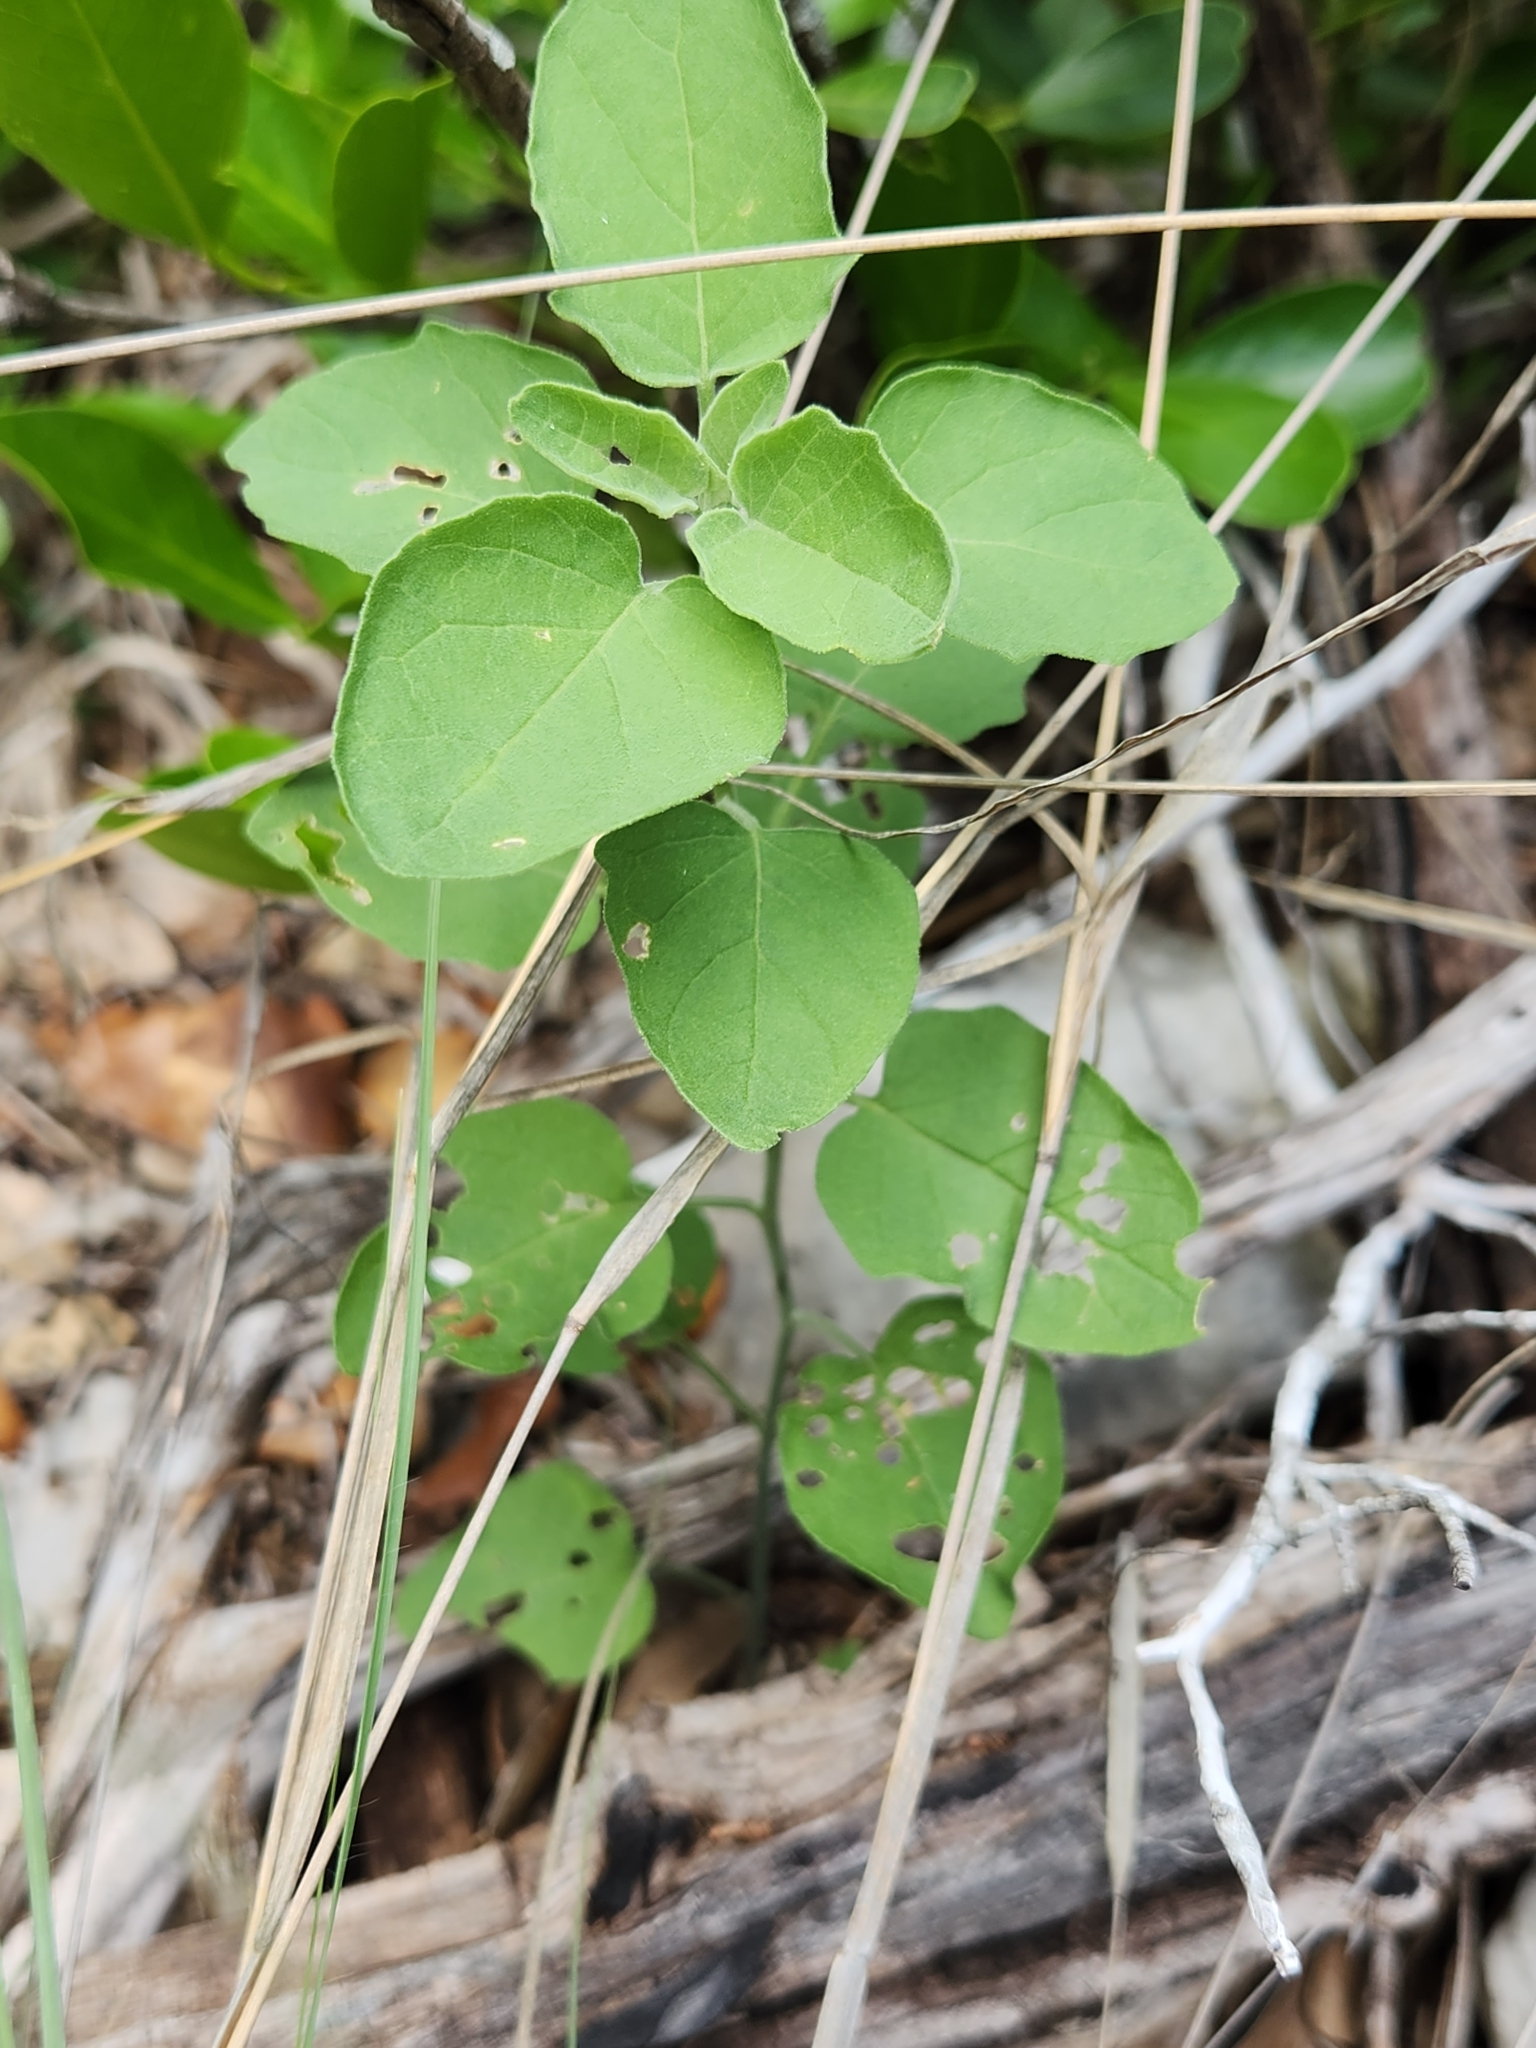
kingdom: Plantae
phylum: Tracheophyta
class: Magnoliopsida
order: Solanales
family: Solanaceae
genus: Physalis
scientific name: Physalis cinerascens
